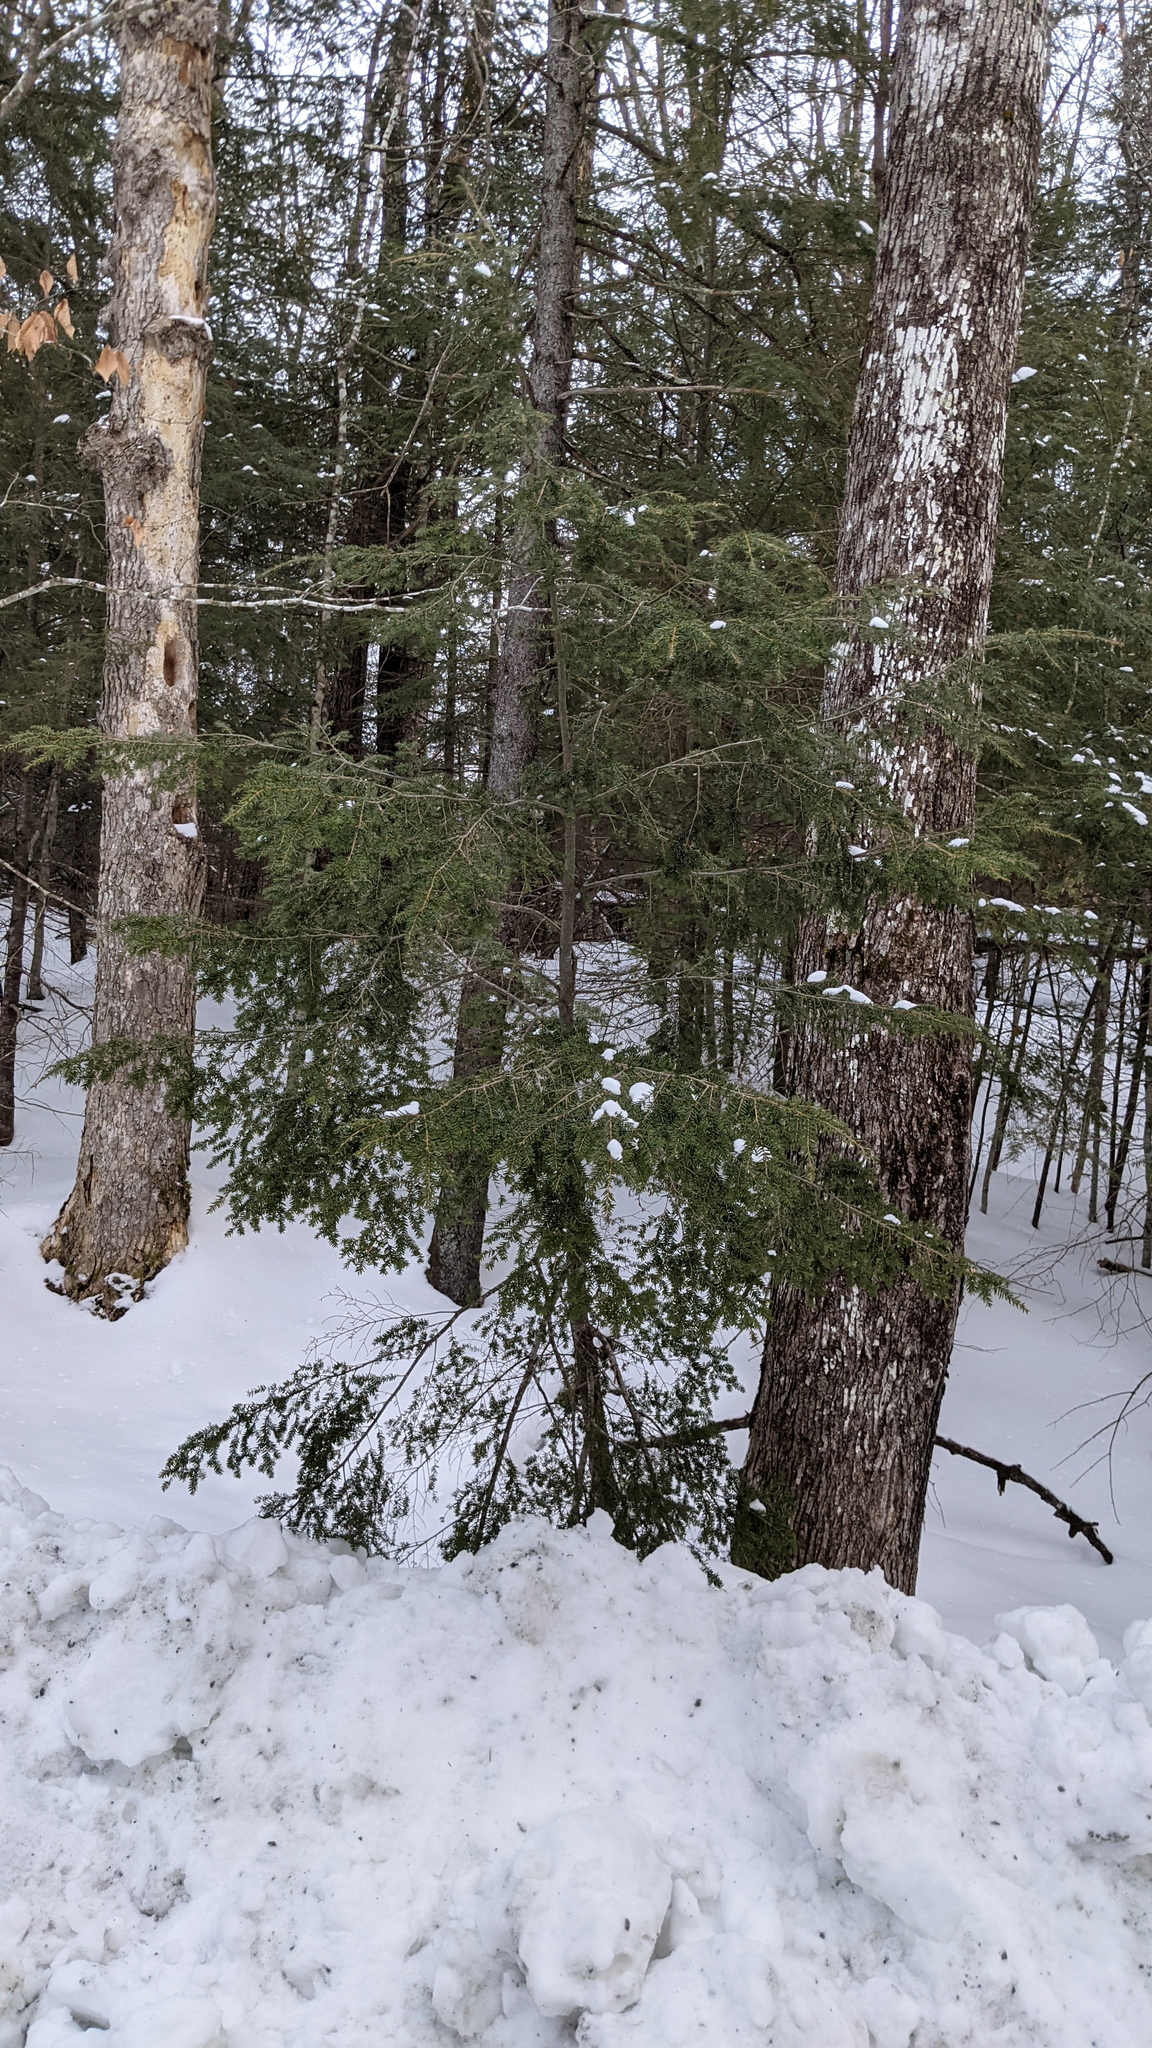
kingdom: Plantae
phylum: Tracheophyta
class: Pinopsida
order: Pinales
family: Pinaceae
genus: Tsuga
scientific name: Tsuga canadensis
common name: Eastern hemlock
